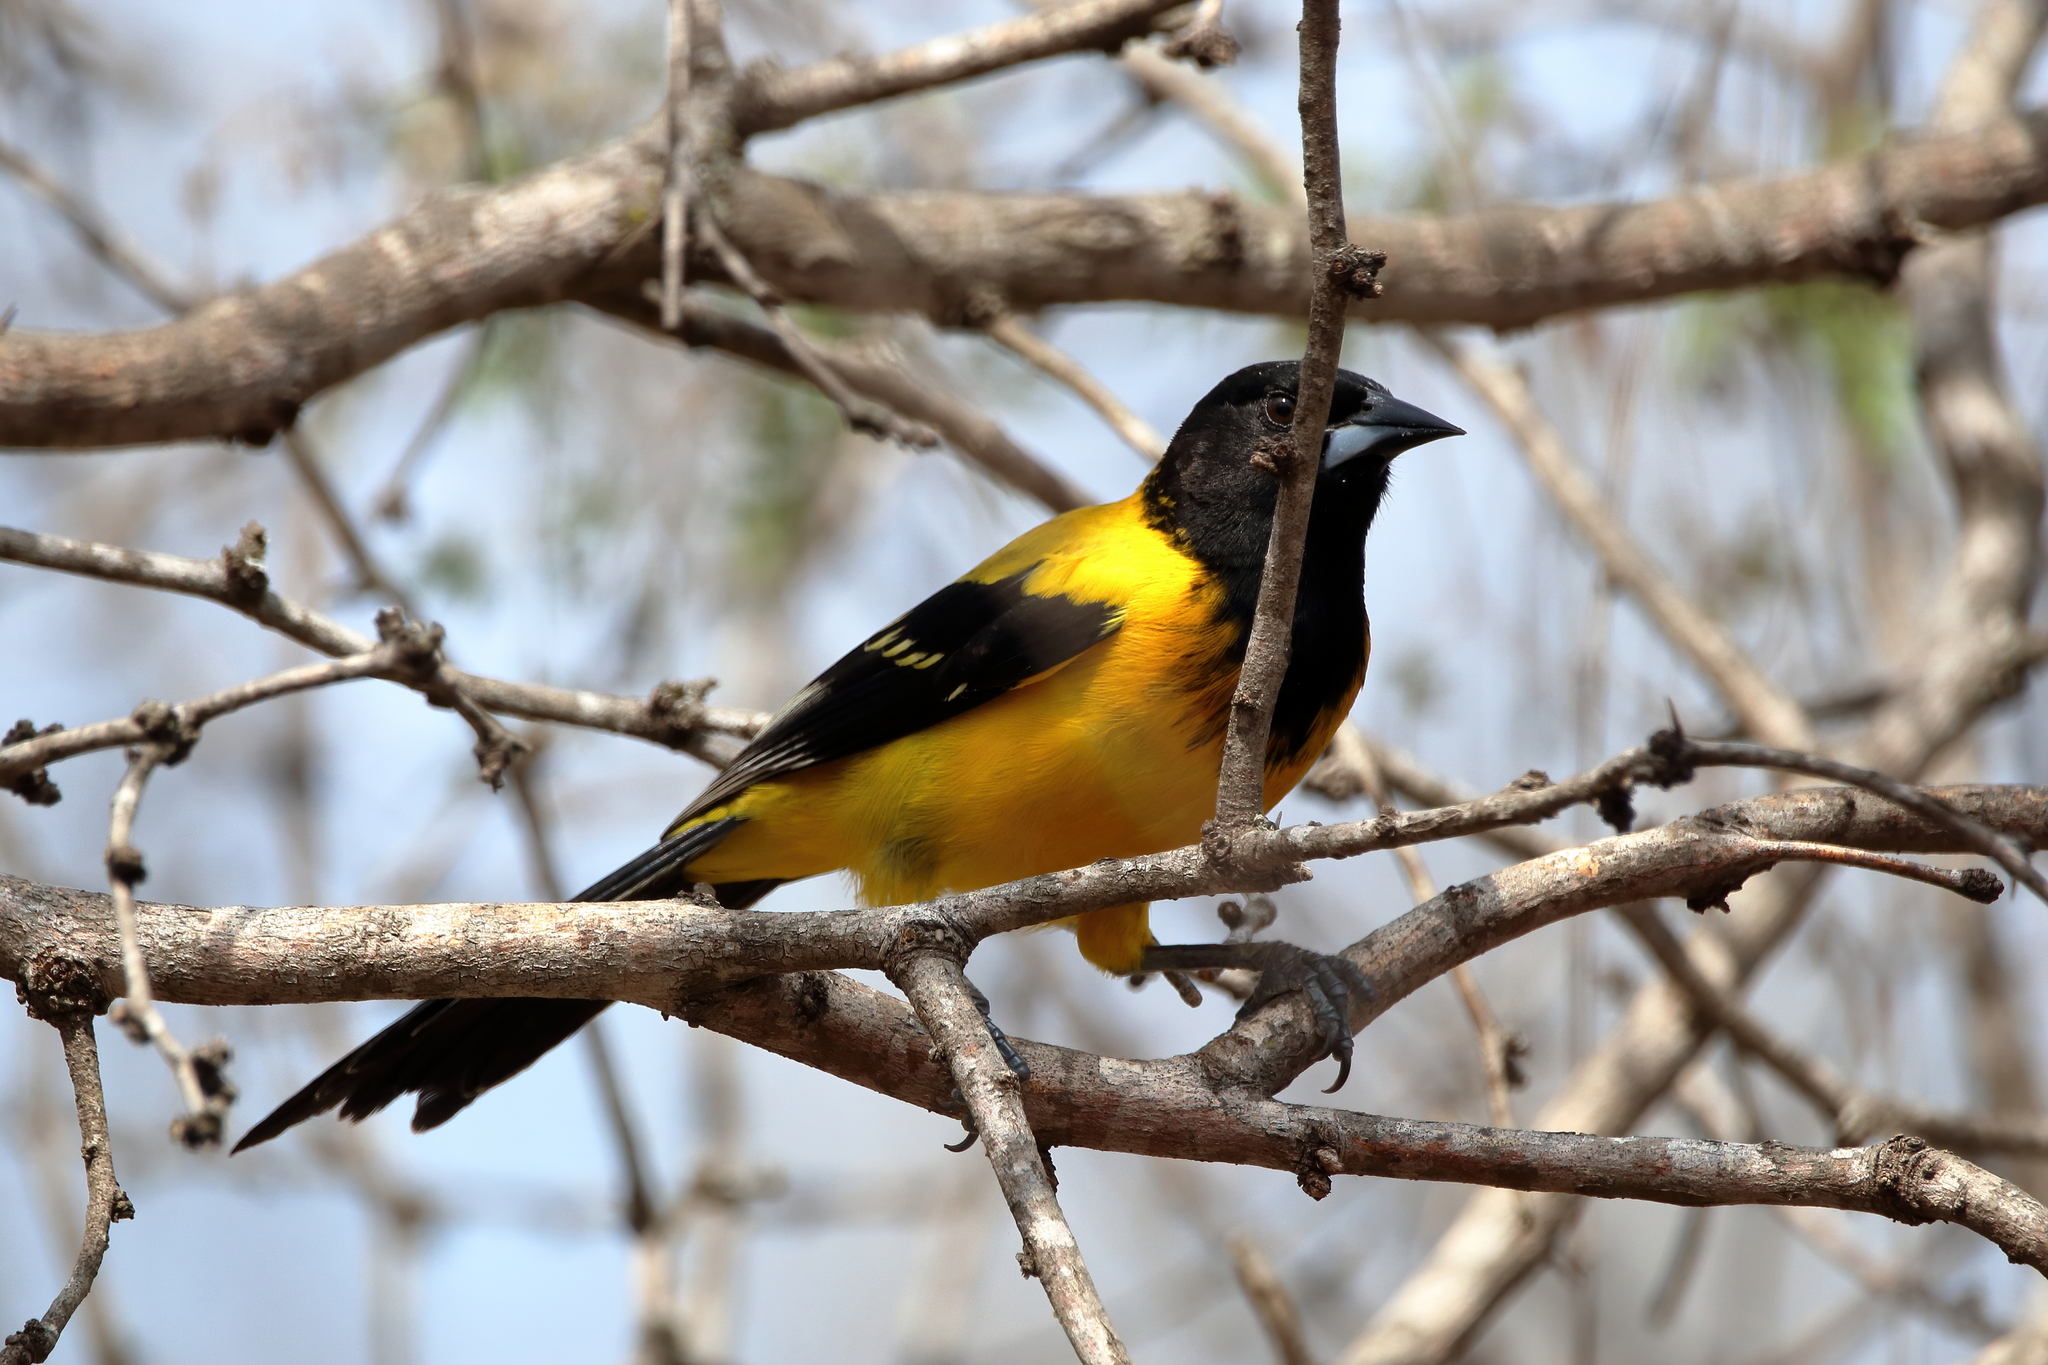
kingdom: Animalia
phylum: Chordata
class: Aves
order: Passeriformes
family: Icteridae
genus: Icterus
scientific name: Icterus graduacauda
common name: Audubon's oriole
